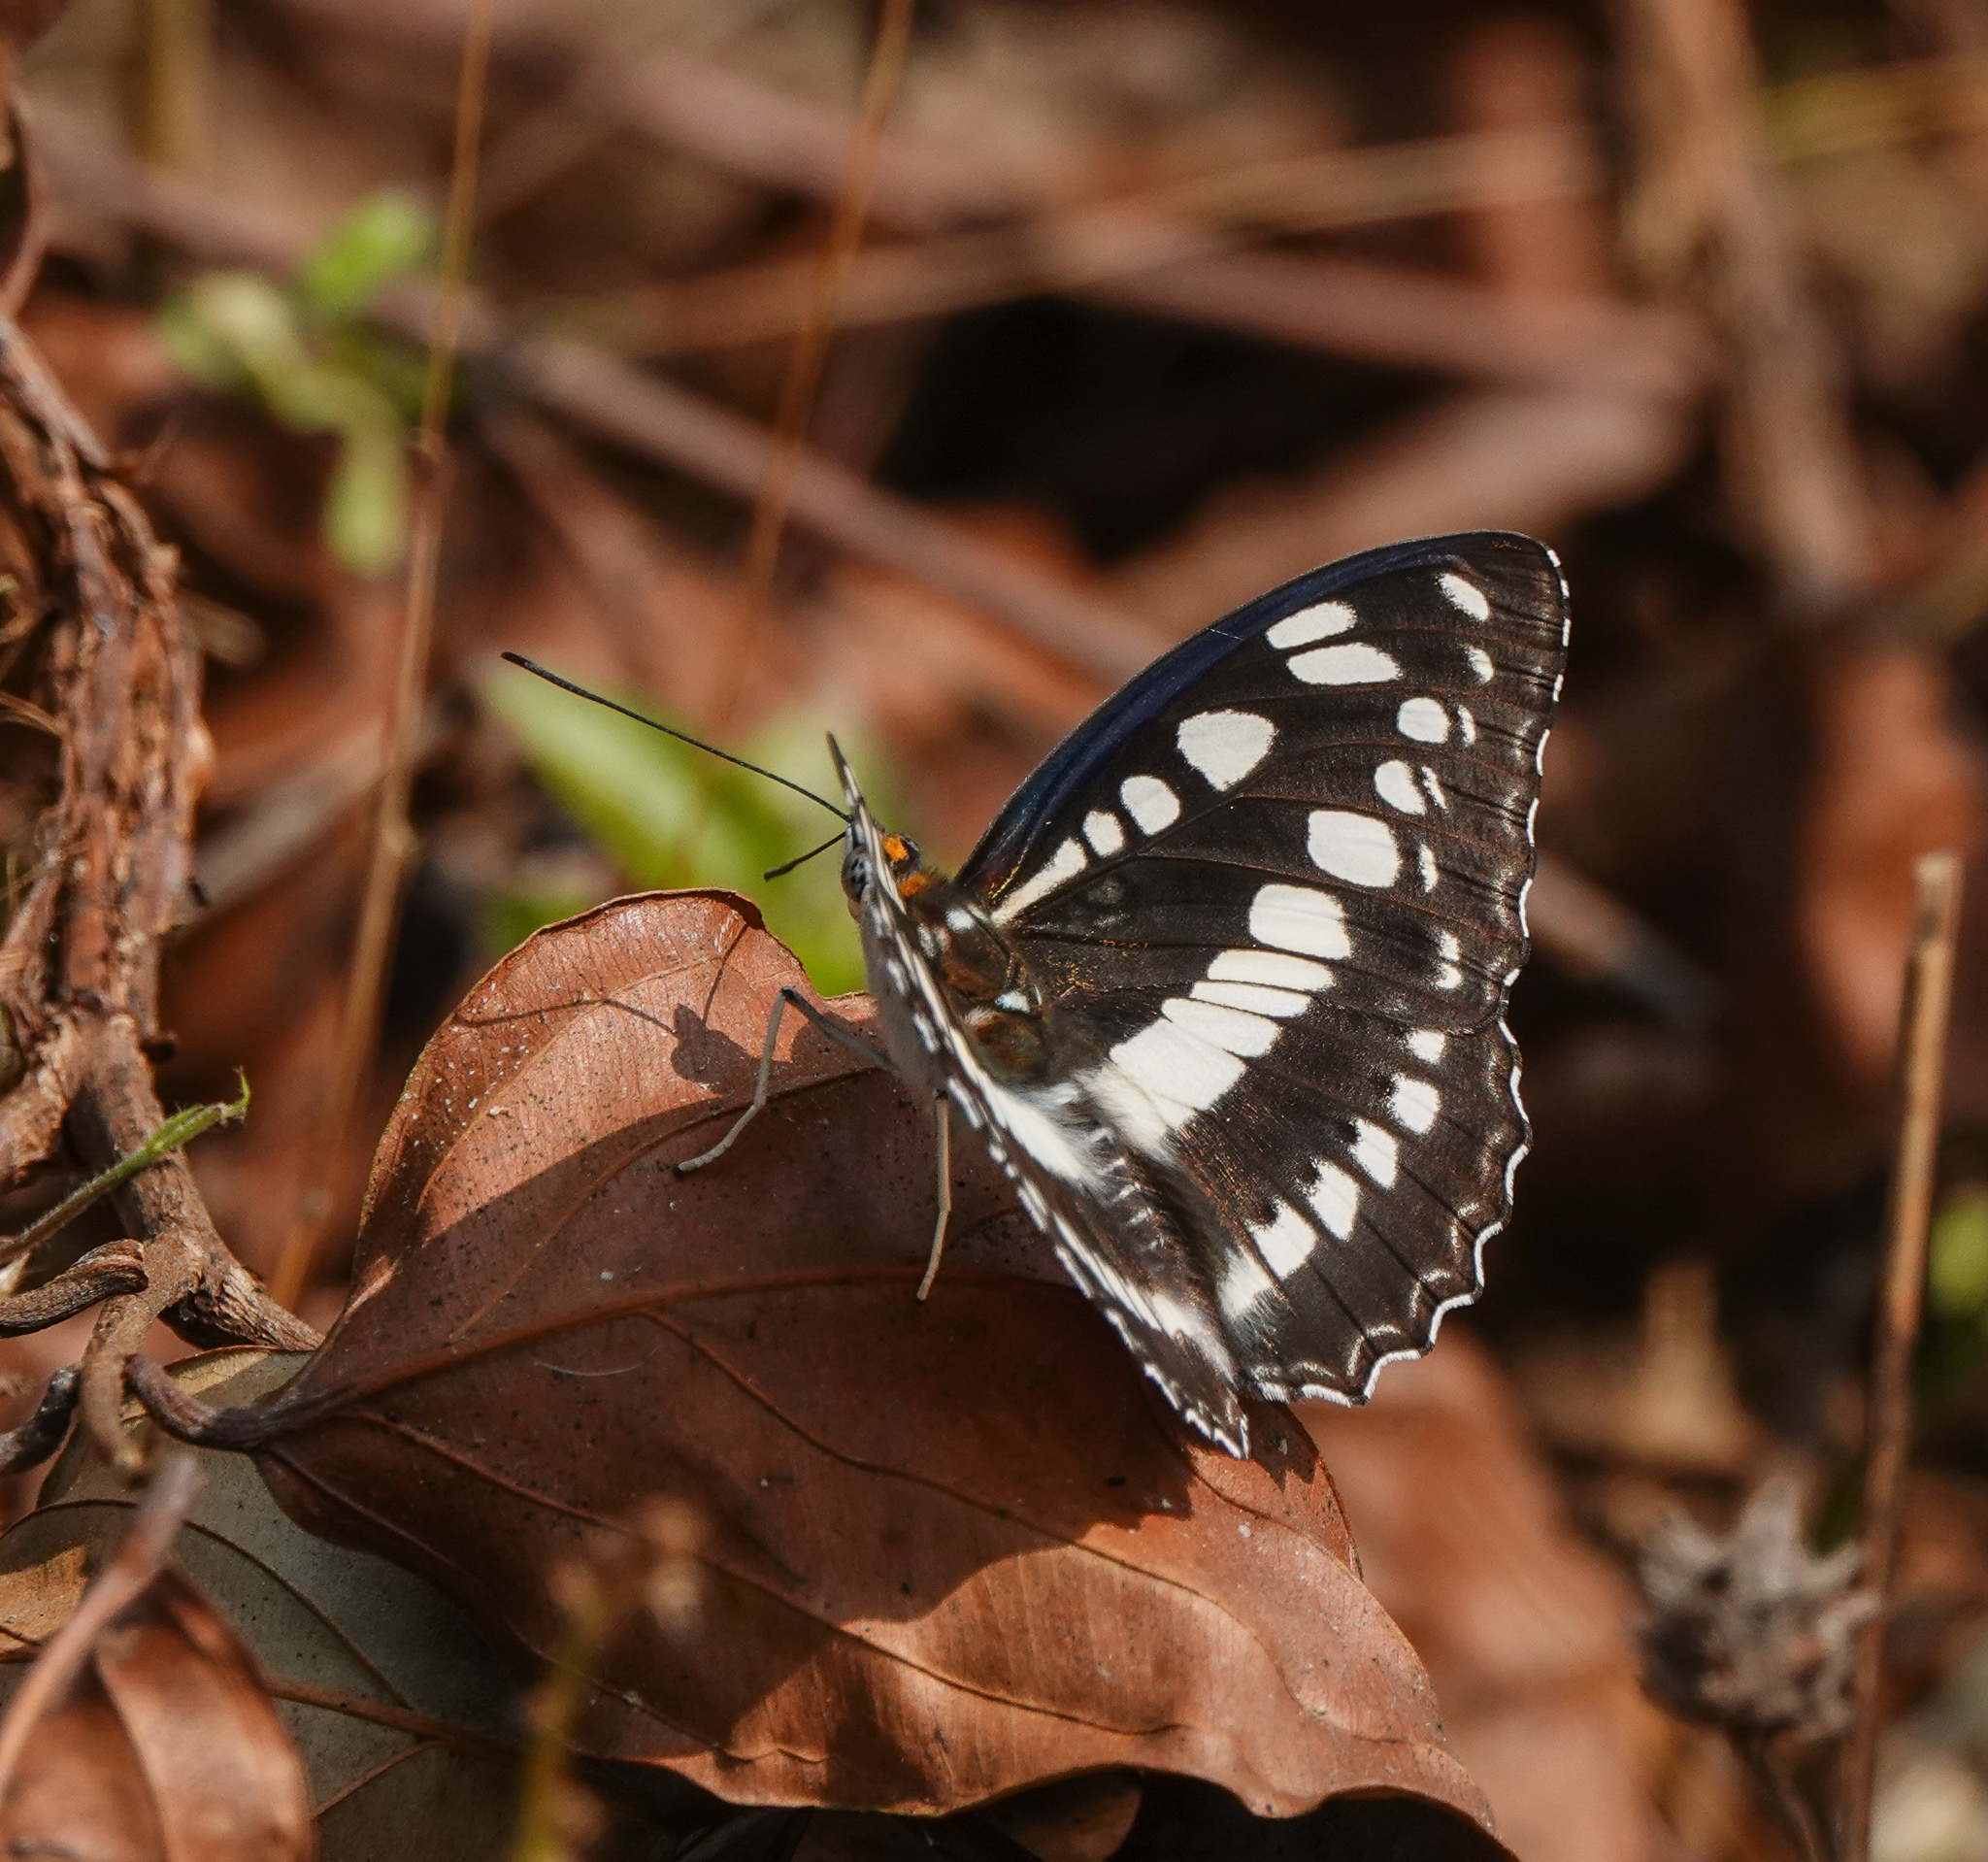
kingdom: Animalia
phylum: Arthropoda
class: Insecta
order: Lepidoptera
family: Nymphalidae
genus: Parathyma
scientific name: Parathyma perius
